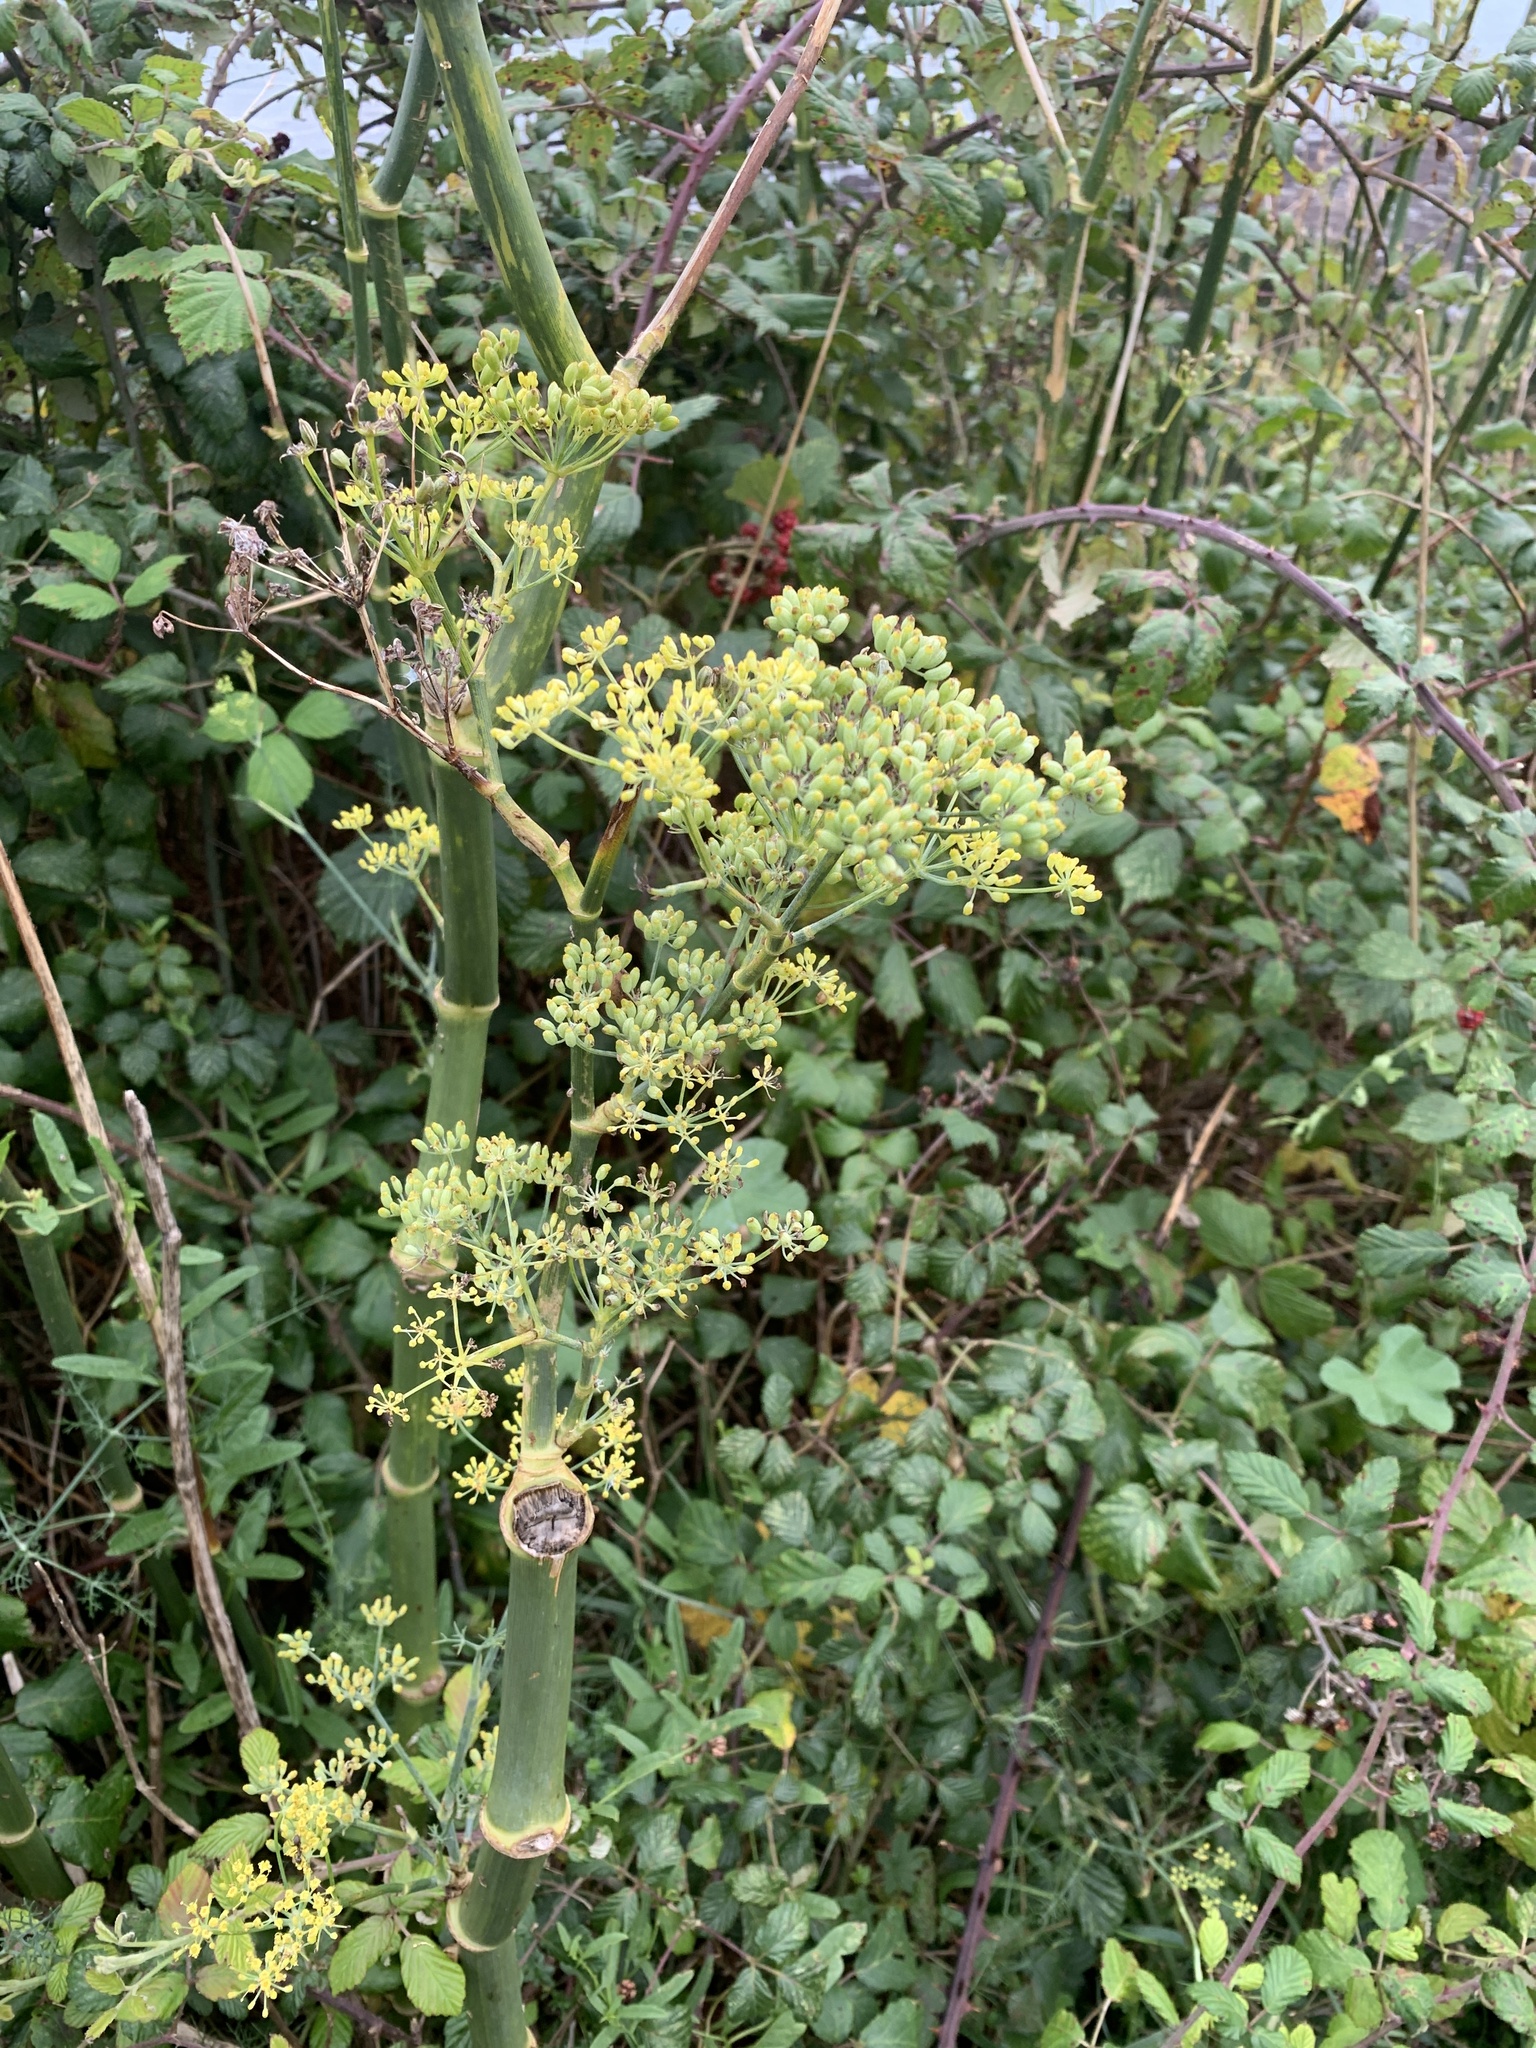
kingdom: Plantae
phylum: Tracheophyta
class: Magnoliopsida
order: Apiales
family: Apiaceae
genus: Foeniculum
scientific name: Foeniculum vulgare
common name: Fennel
